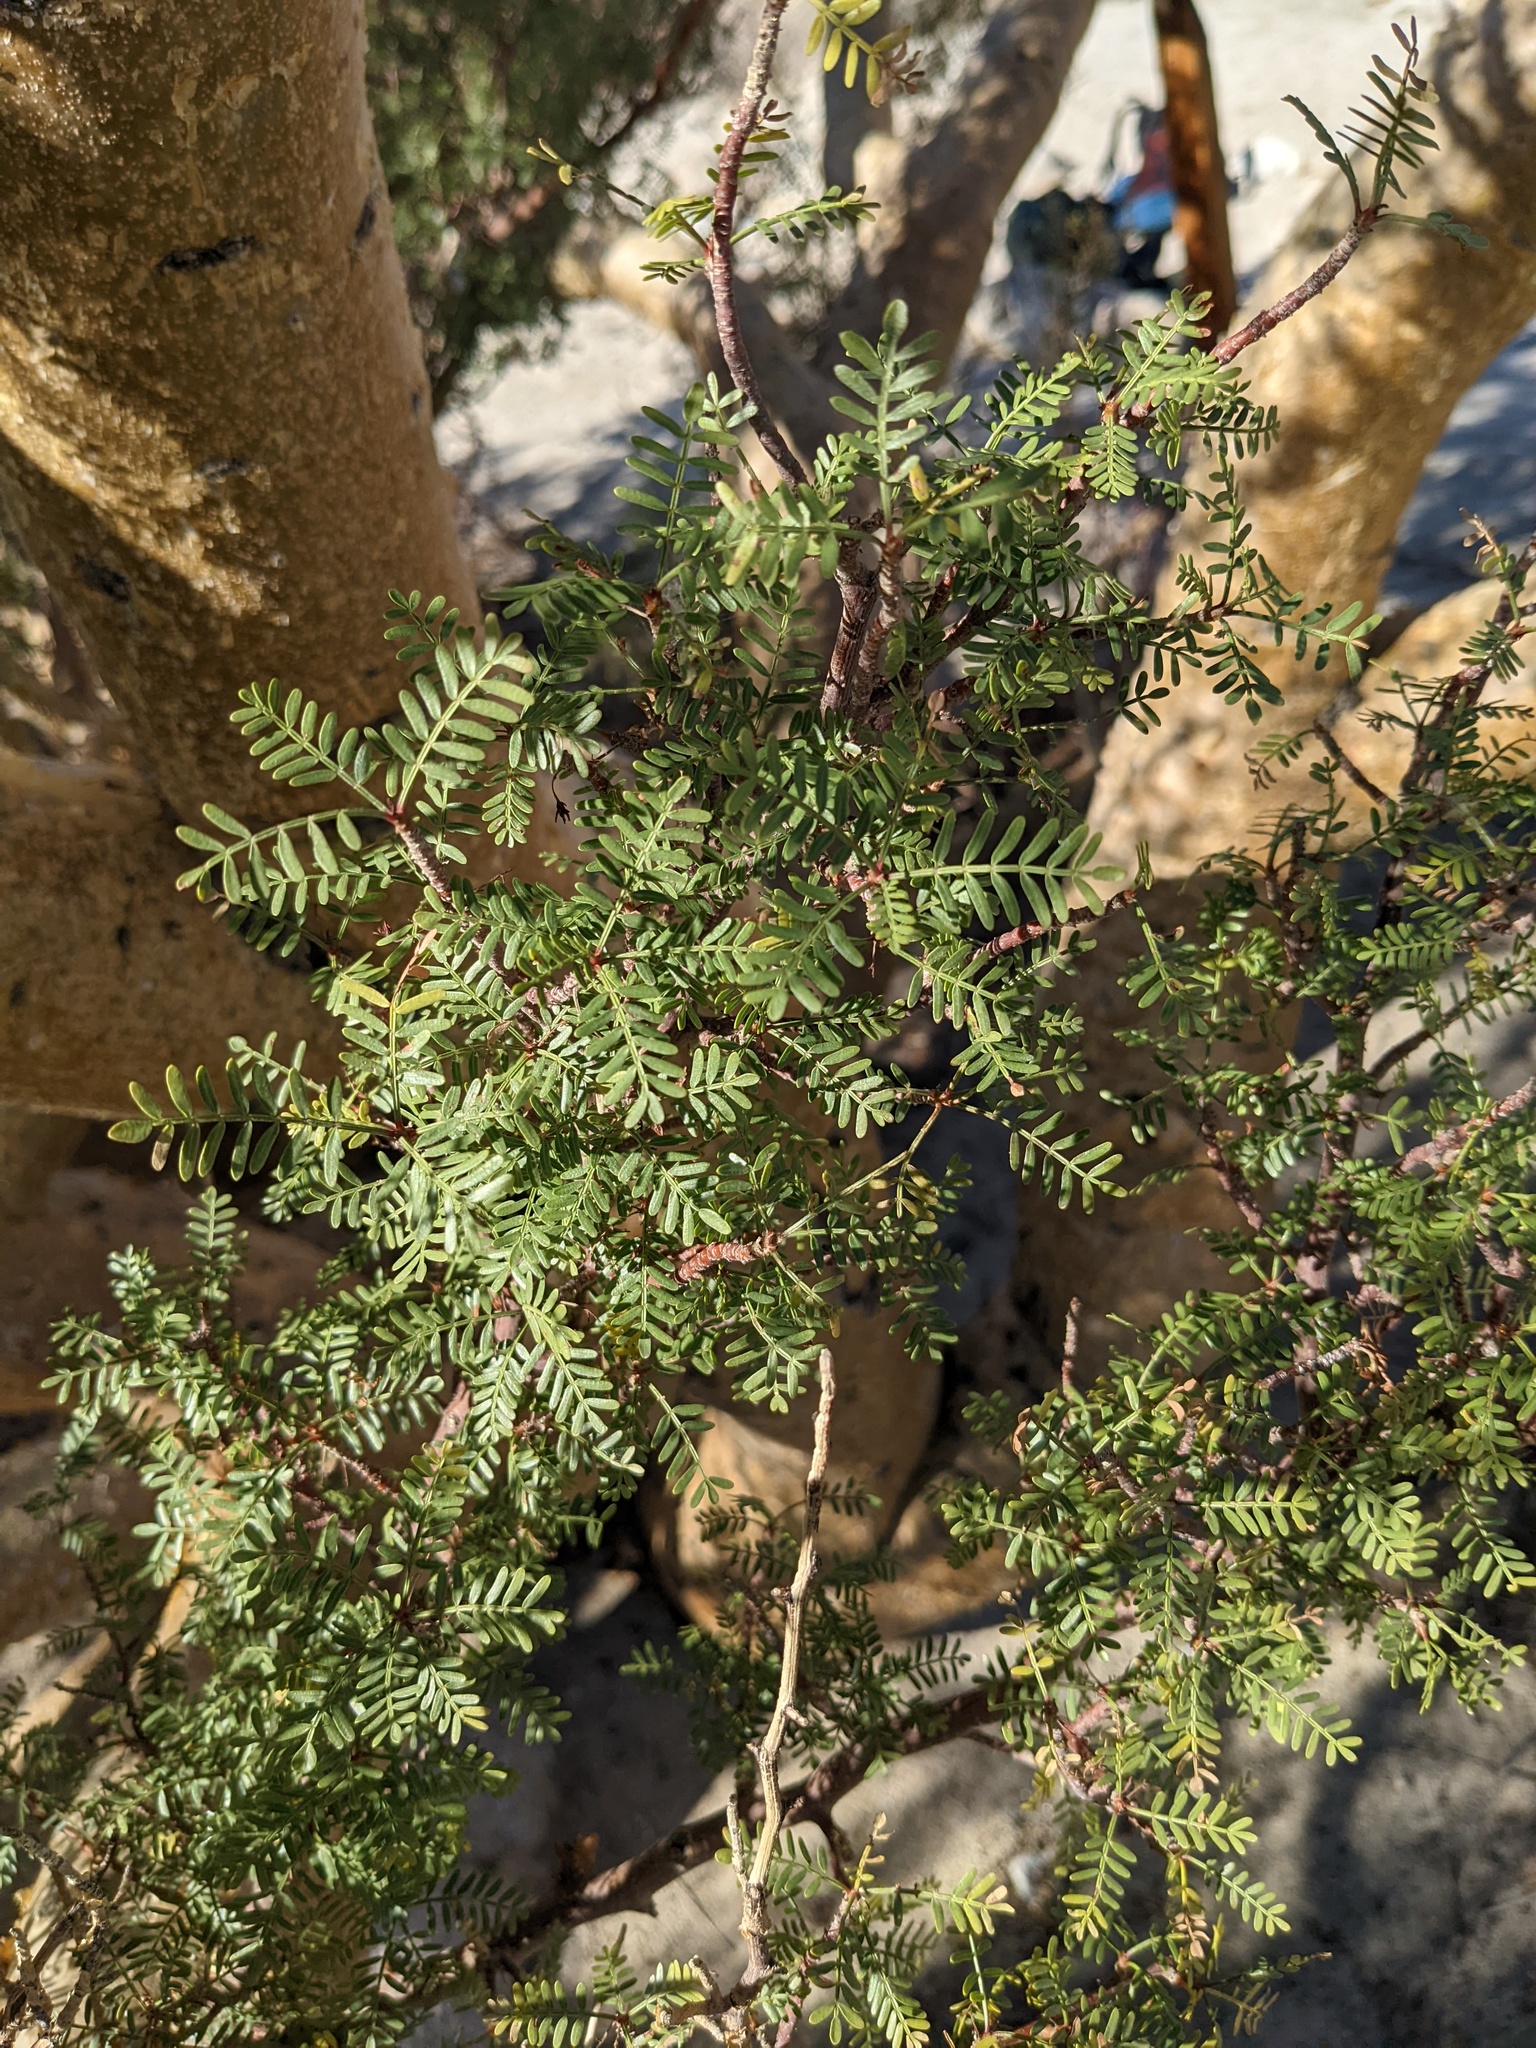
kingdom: Plantae
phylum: Tracheophyta
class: Magnoliopsida
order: Sapindales
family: Burseraceae
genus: Bursera
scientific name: Bursera microphylla
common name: Elephant tree
